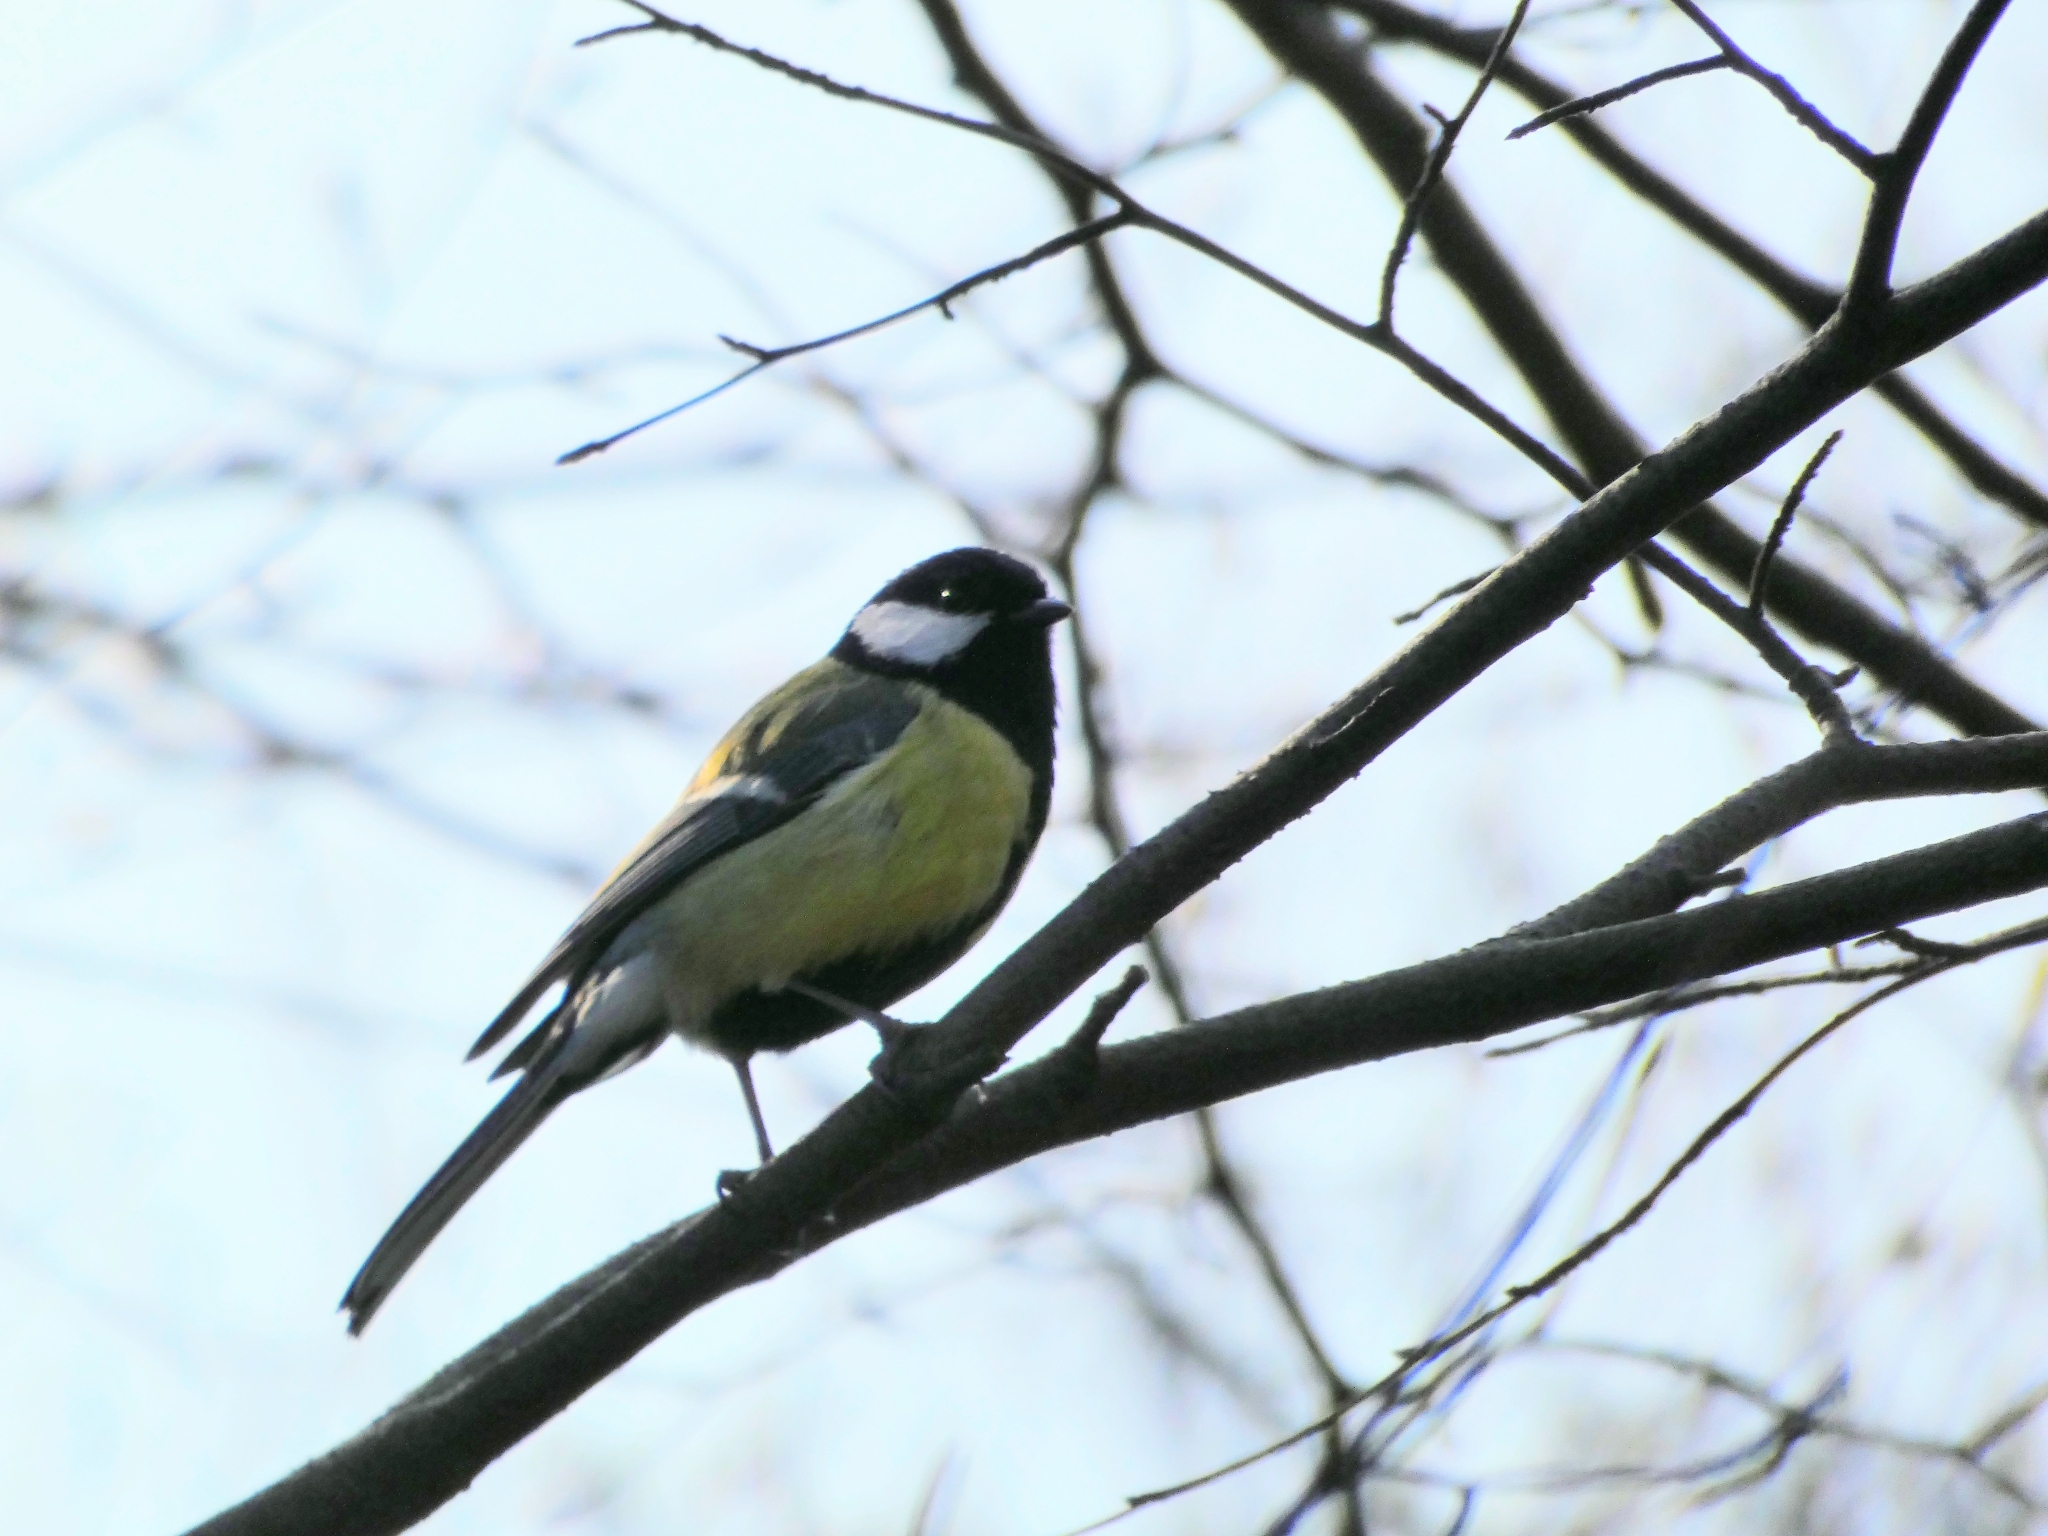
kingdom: Animalia
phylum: Chordata
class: Aves
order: Passeriformes
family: Paridae
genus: Parus
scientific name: Parus major
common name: Great tit
